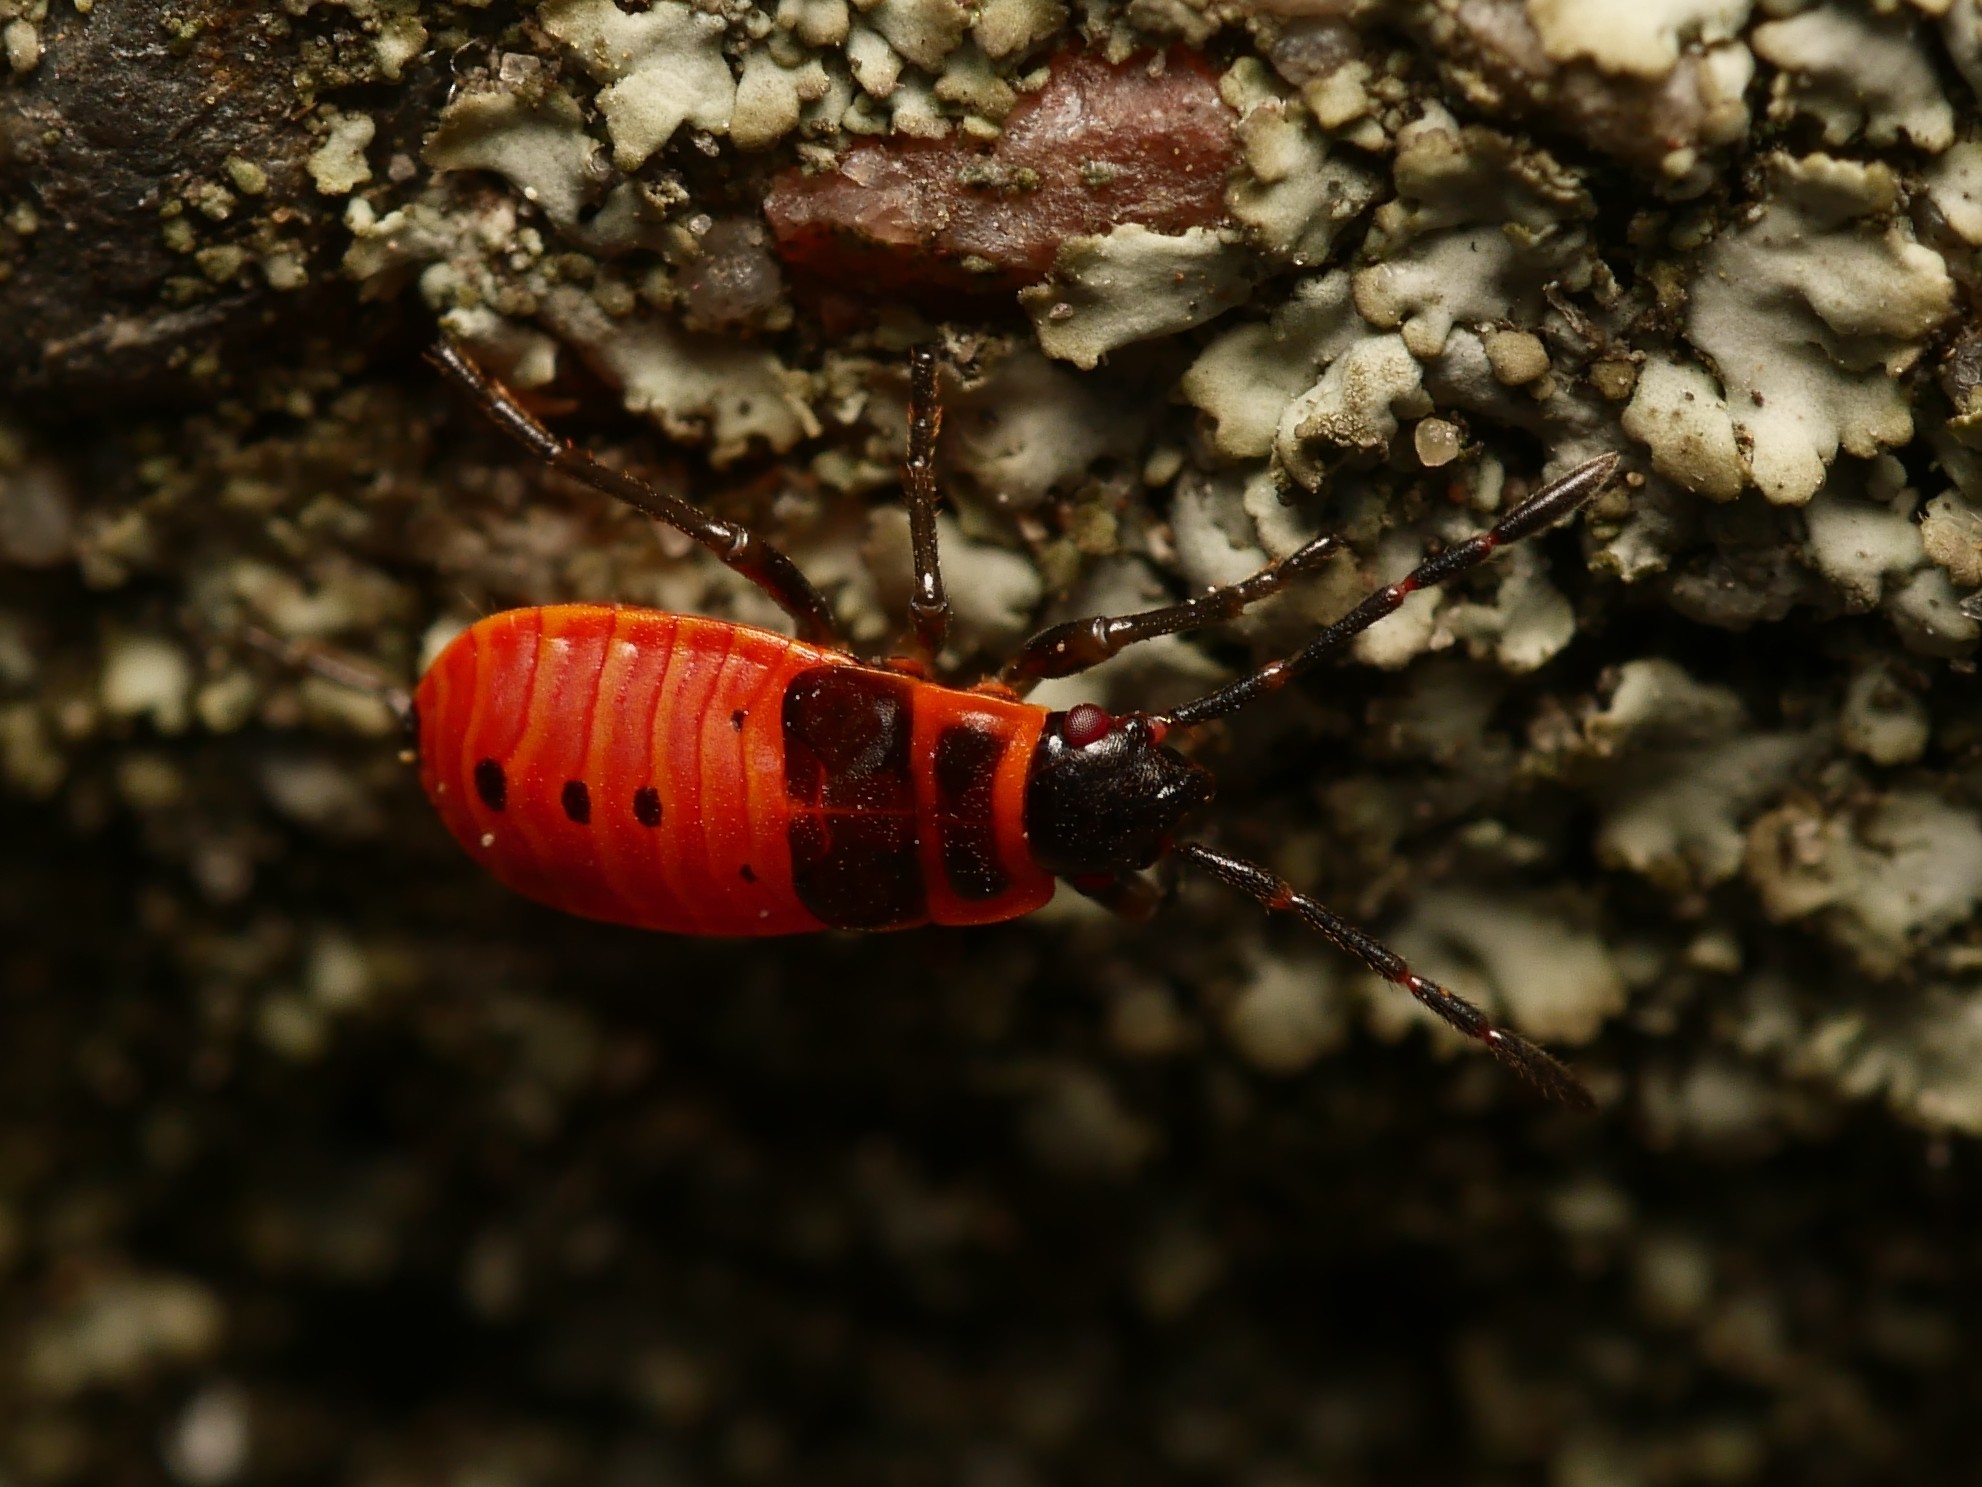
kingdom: Animalia
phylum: Arthropoda
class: Insecta
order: Hemiptera
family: Pyrrhocoridae
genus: Pyrrhocoris
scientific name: Pyrrhocoris apterus
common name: Firebug
